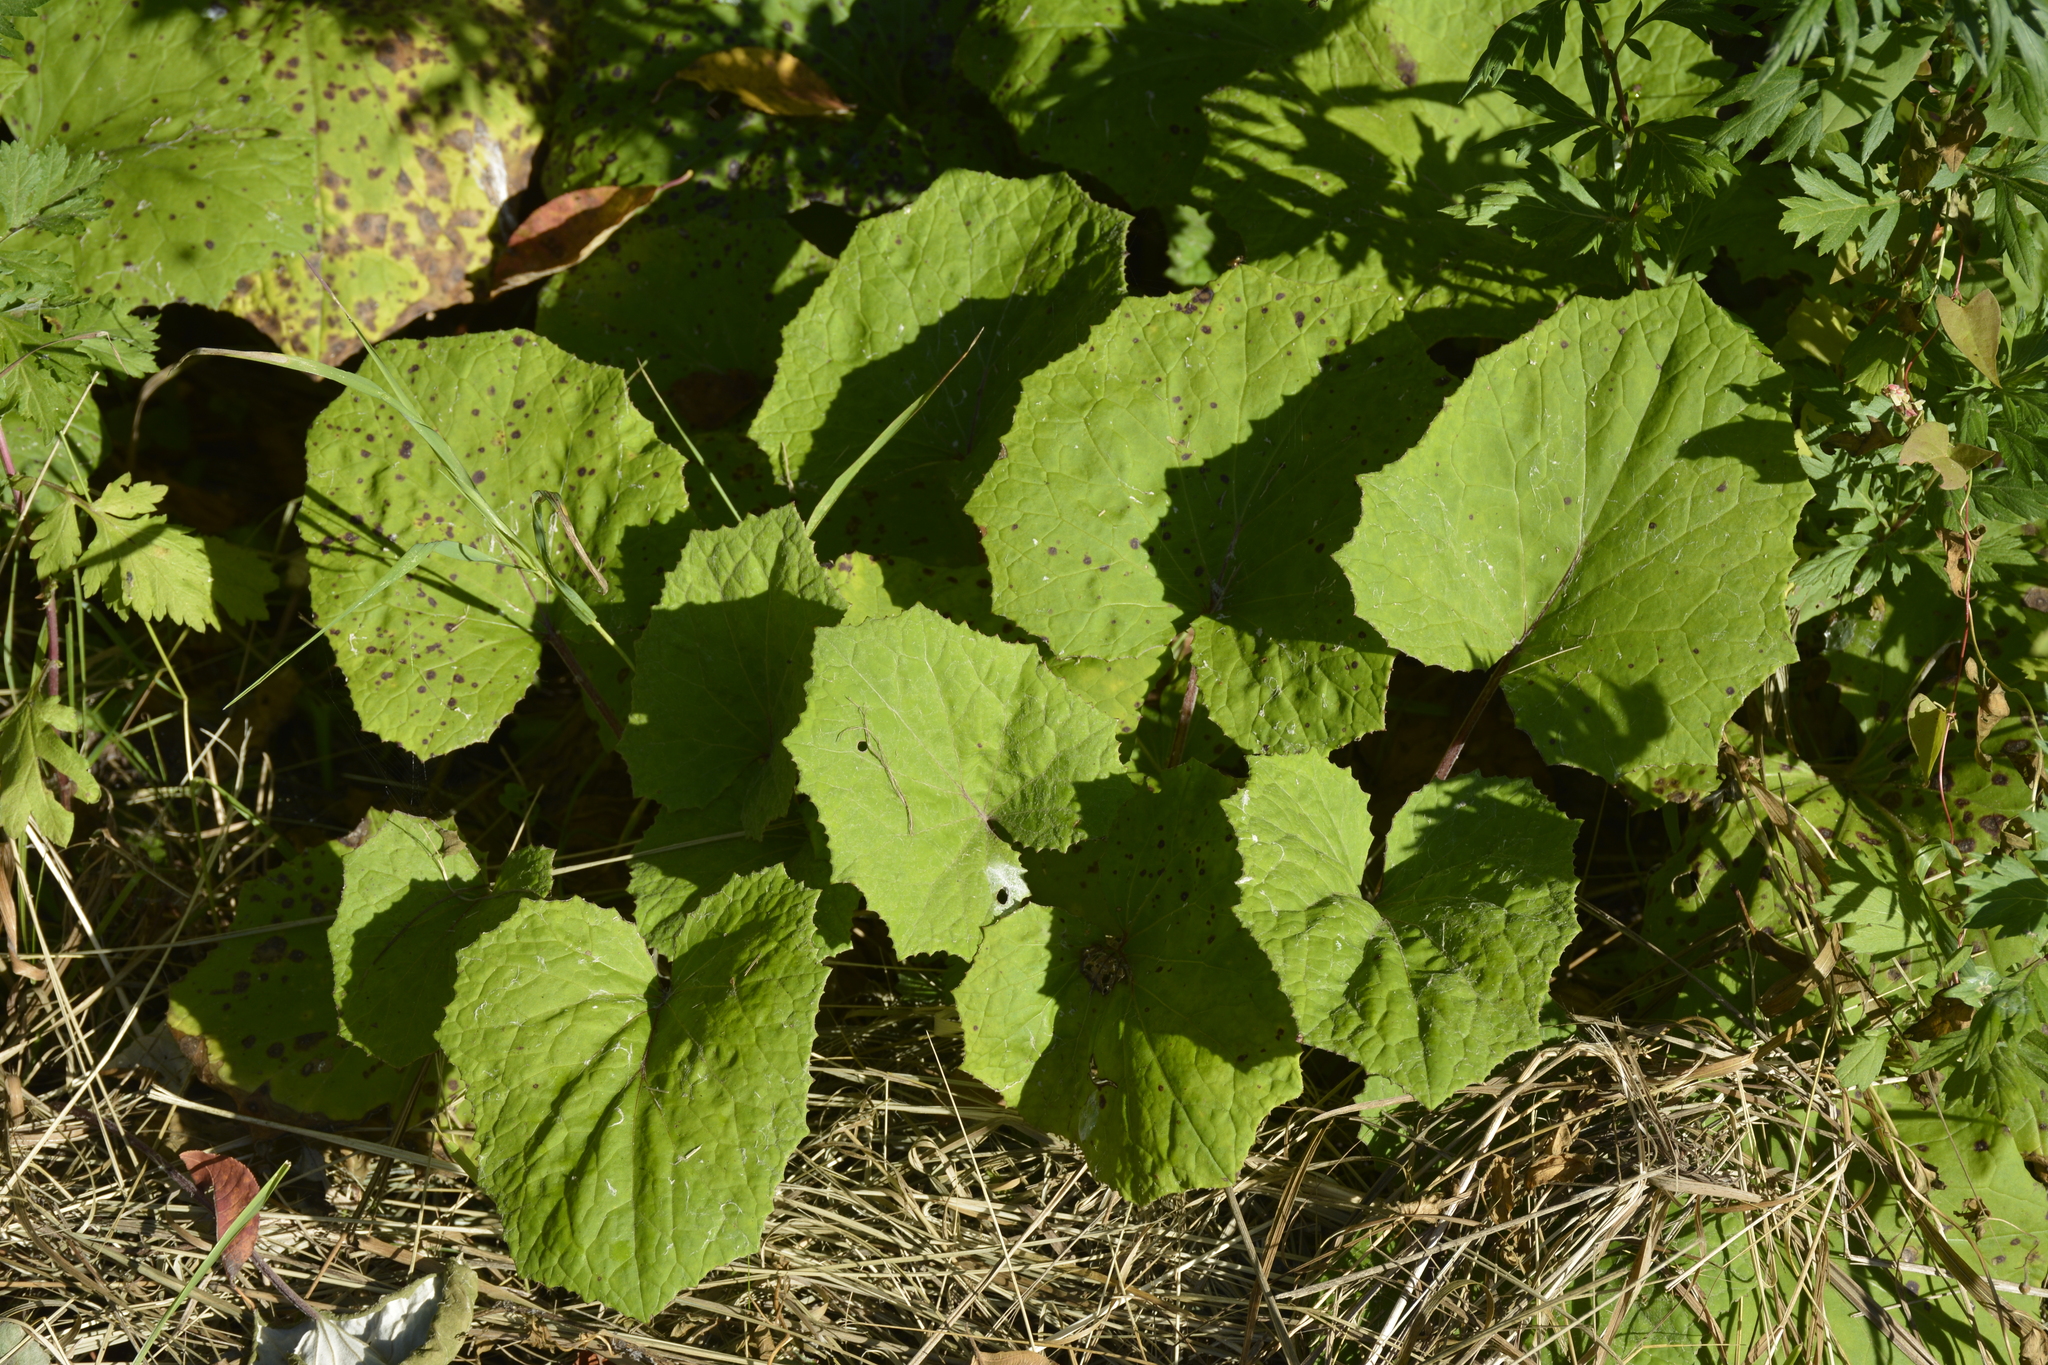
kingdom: Plantae
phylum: Tracheophyta
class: Magnoliopsida
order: Asterales
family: Asteraceae
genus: Tussilago
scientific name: Tussilago farfara
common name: Coltsfoot
